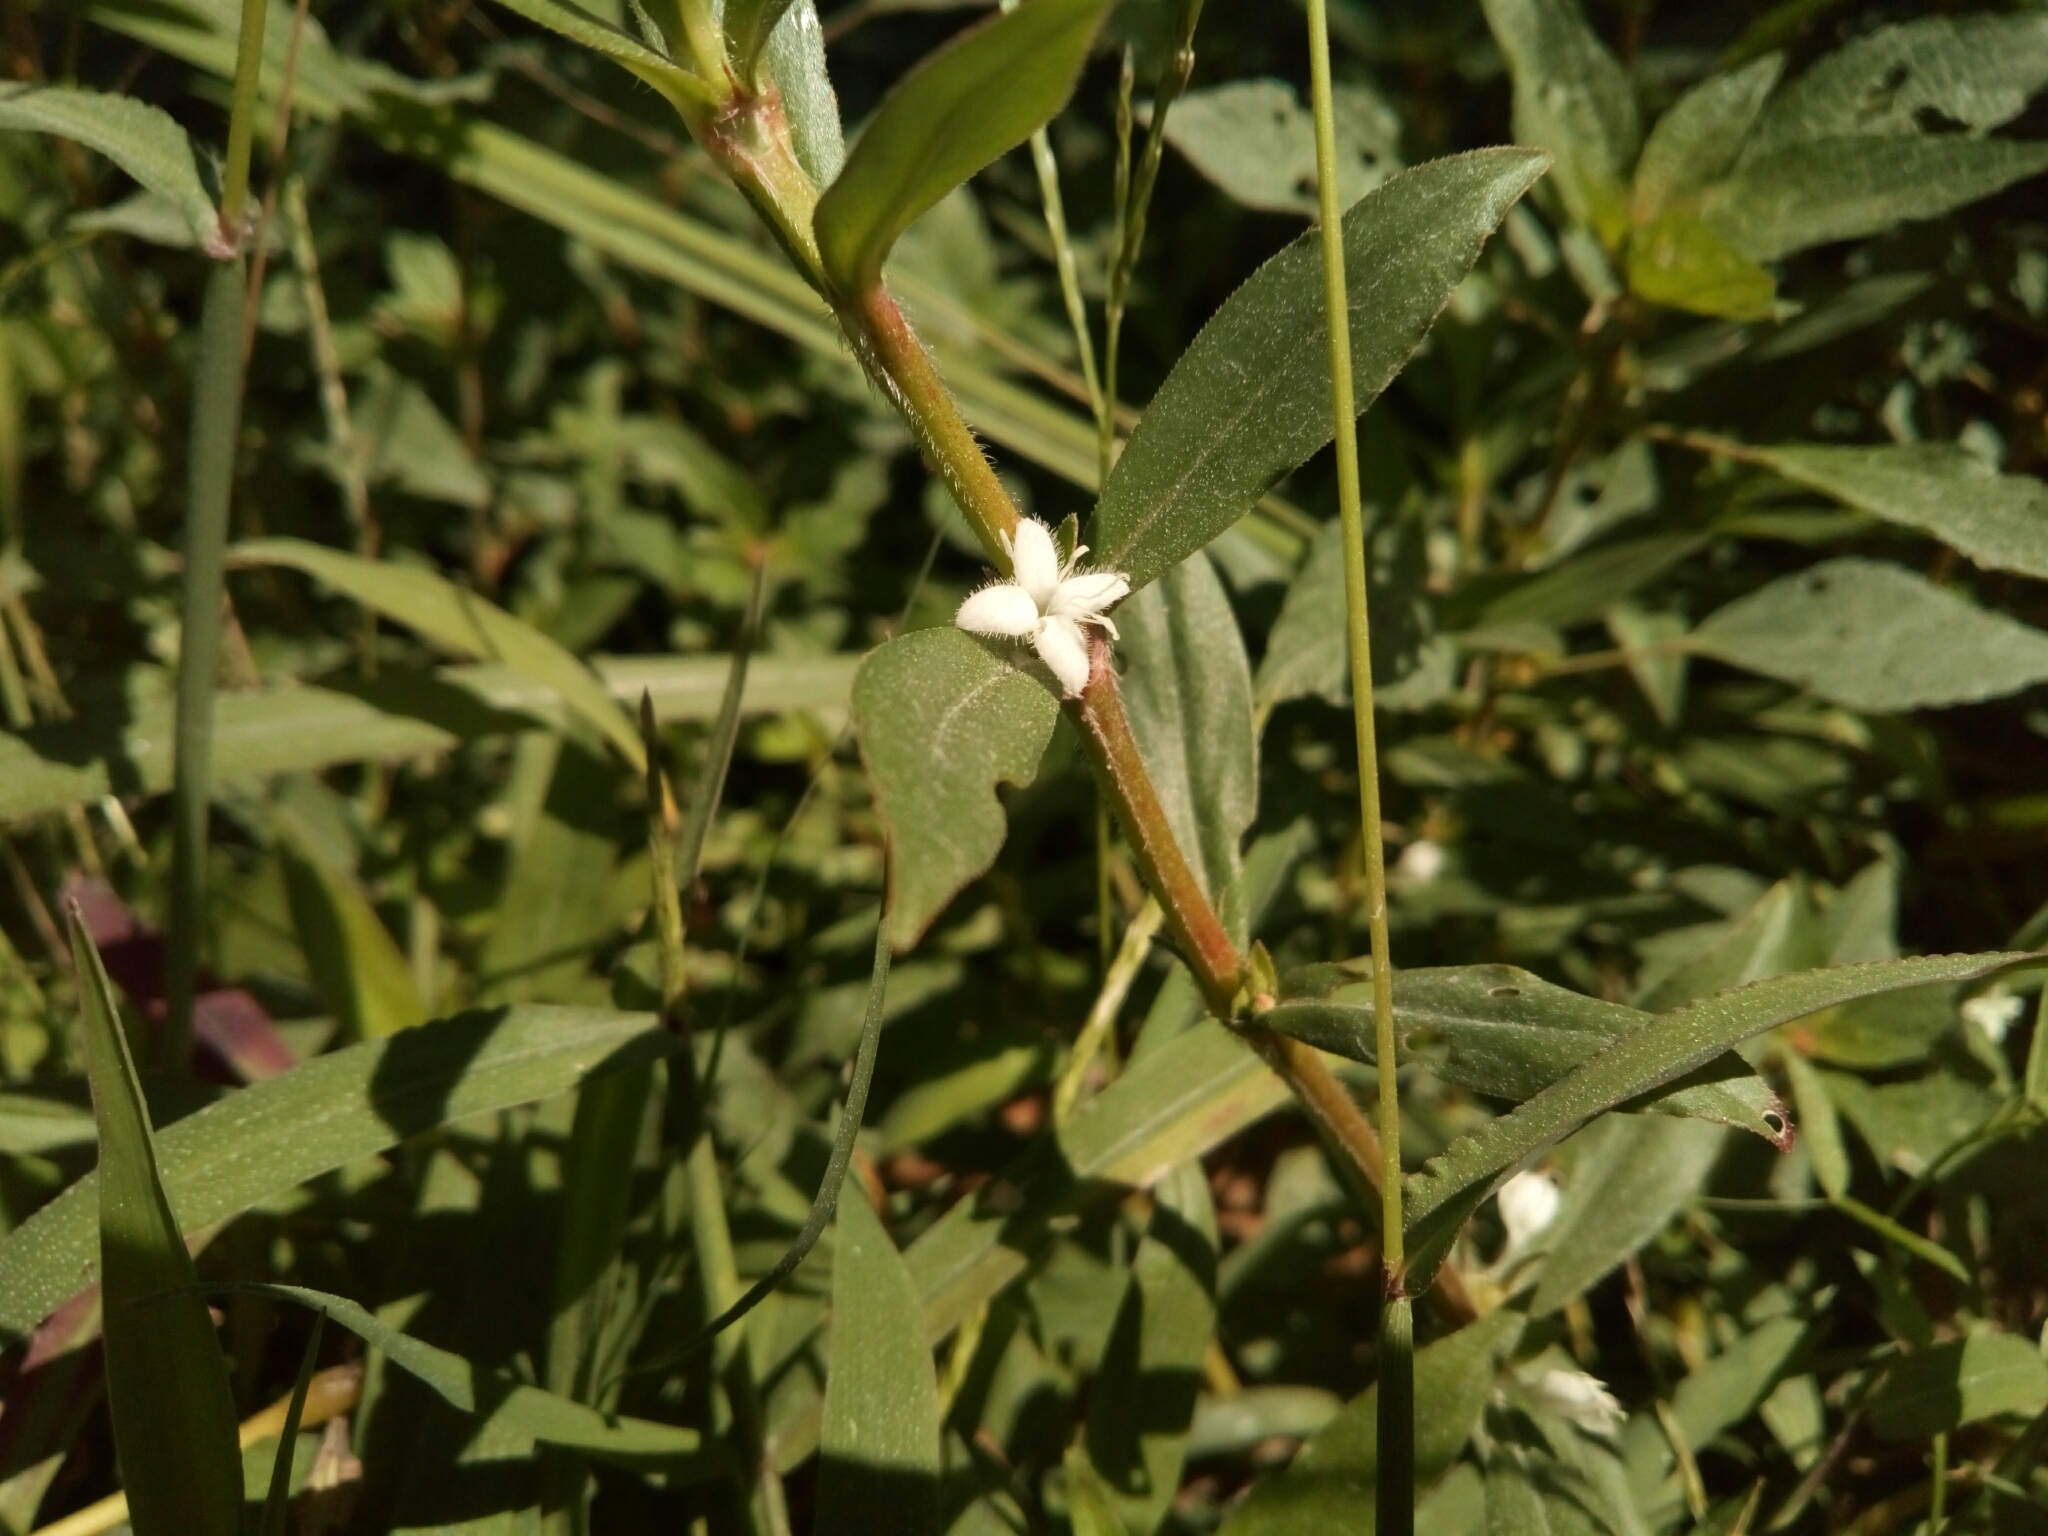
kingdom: Plantae
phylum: Tracheophyta
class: Magnoliopsida
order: Gentianales
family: Rubiaceae
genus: Diodia
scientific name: Diodia virginiana
